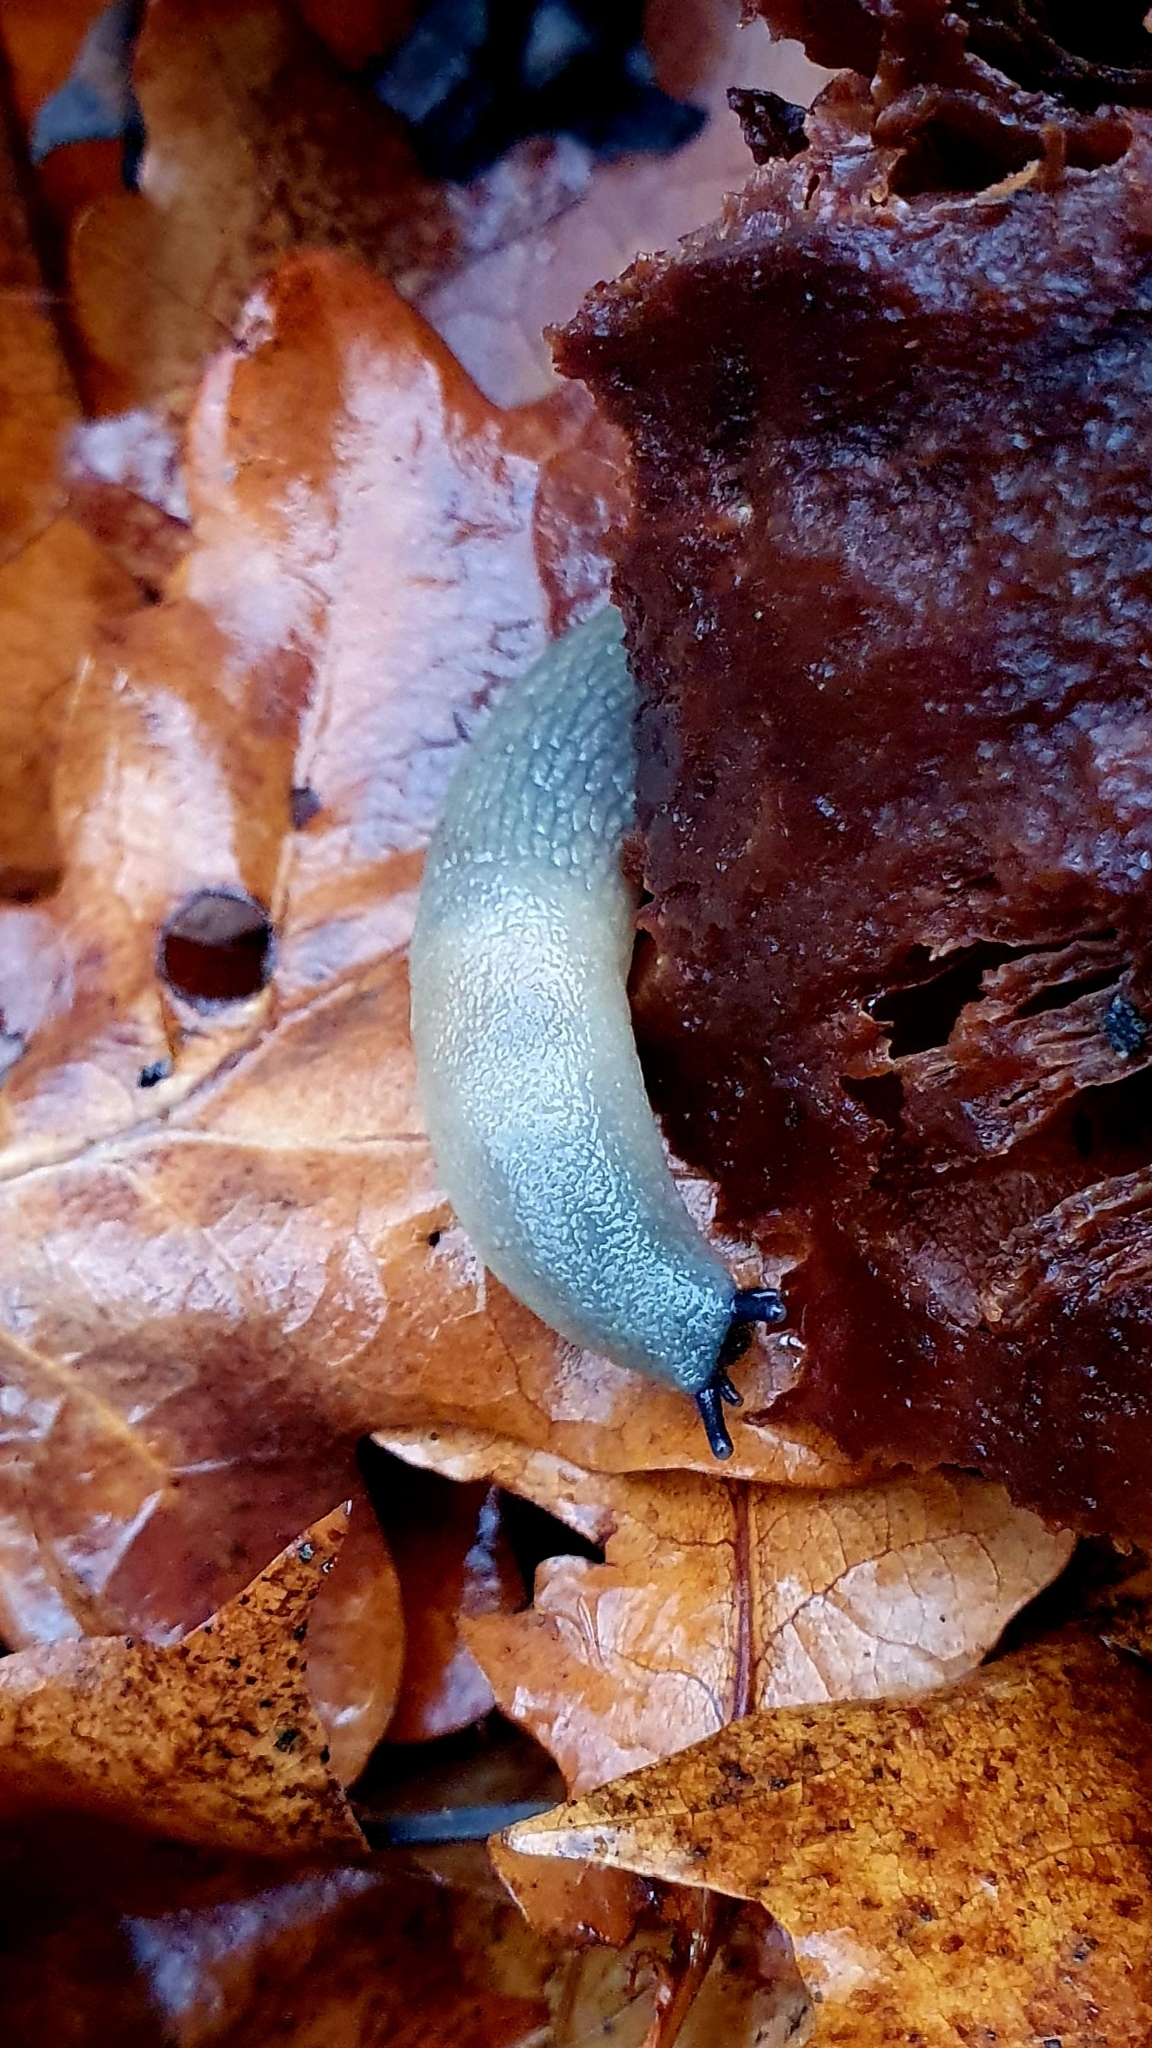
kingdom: Animalia
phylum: Mollusca
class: Gastropoda
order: Stylommatophora
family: Agriolimacidae
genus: Krynickillus
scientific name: Krynickillus melanocephalus
